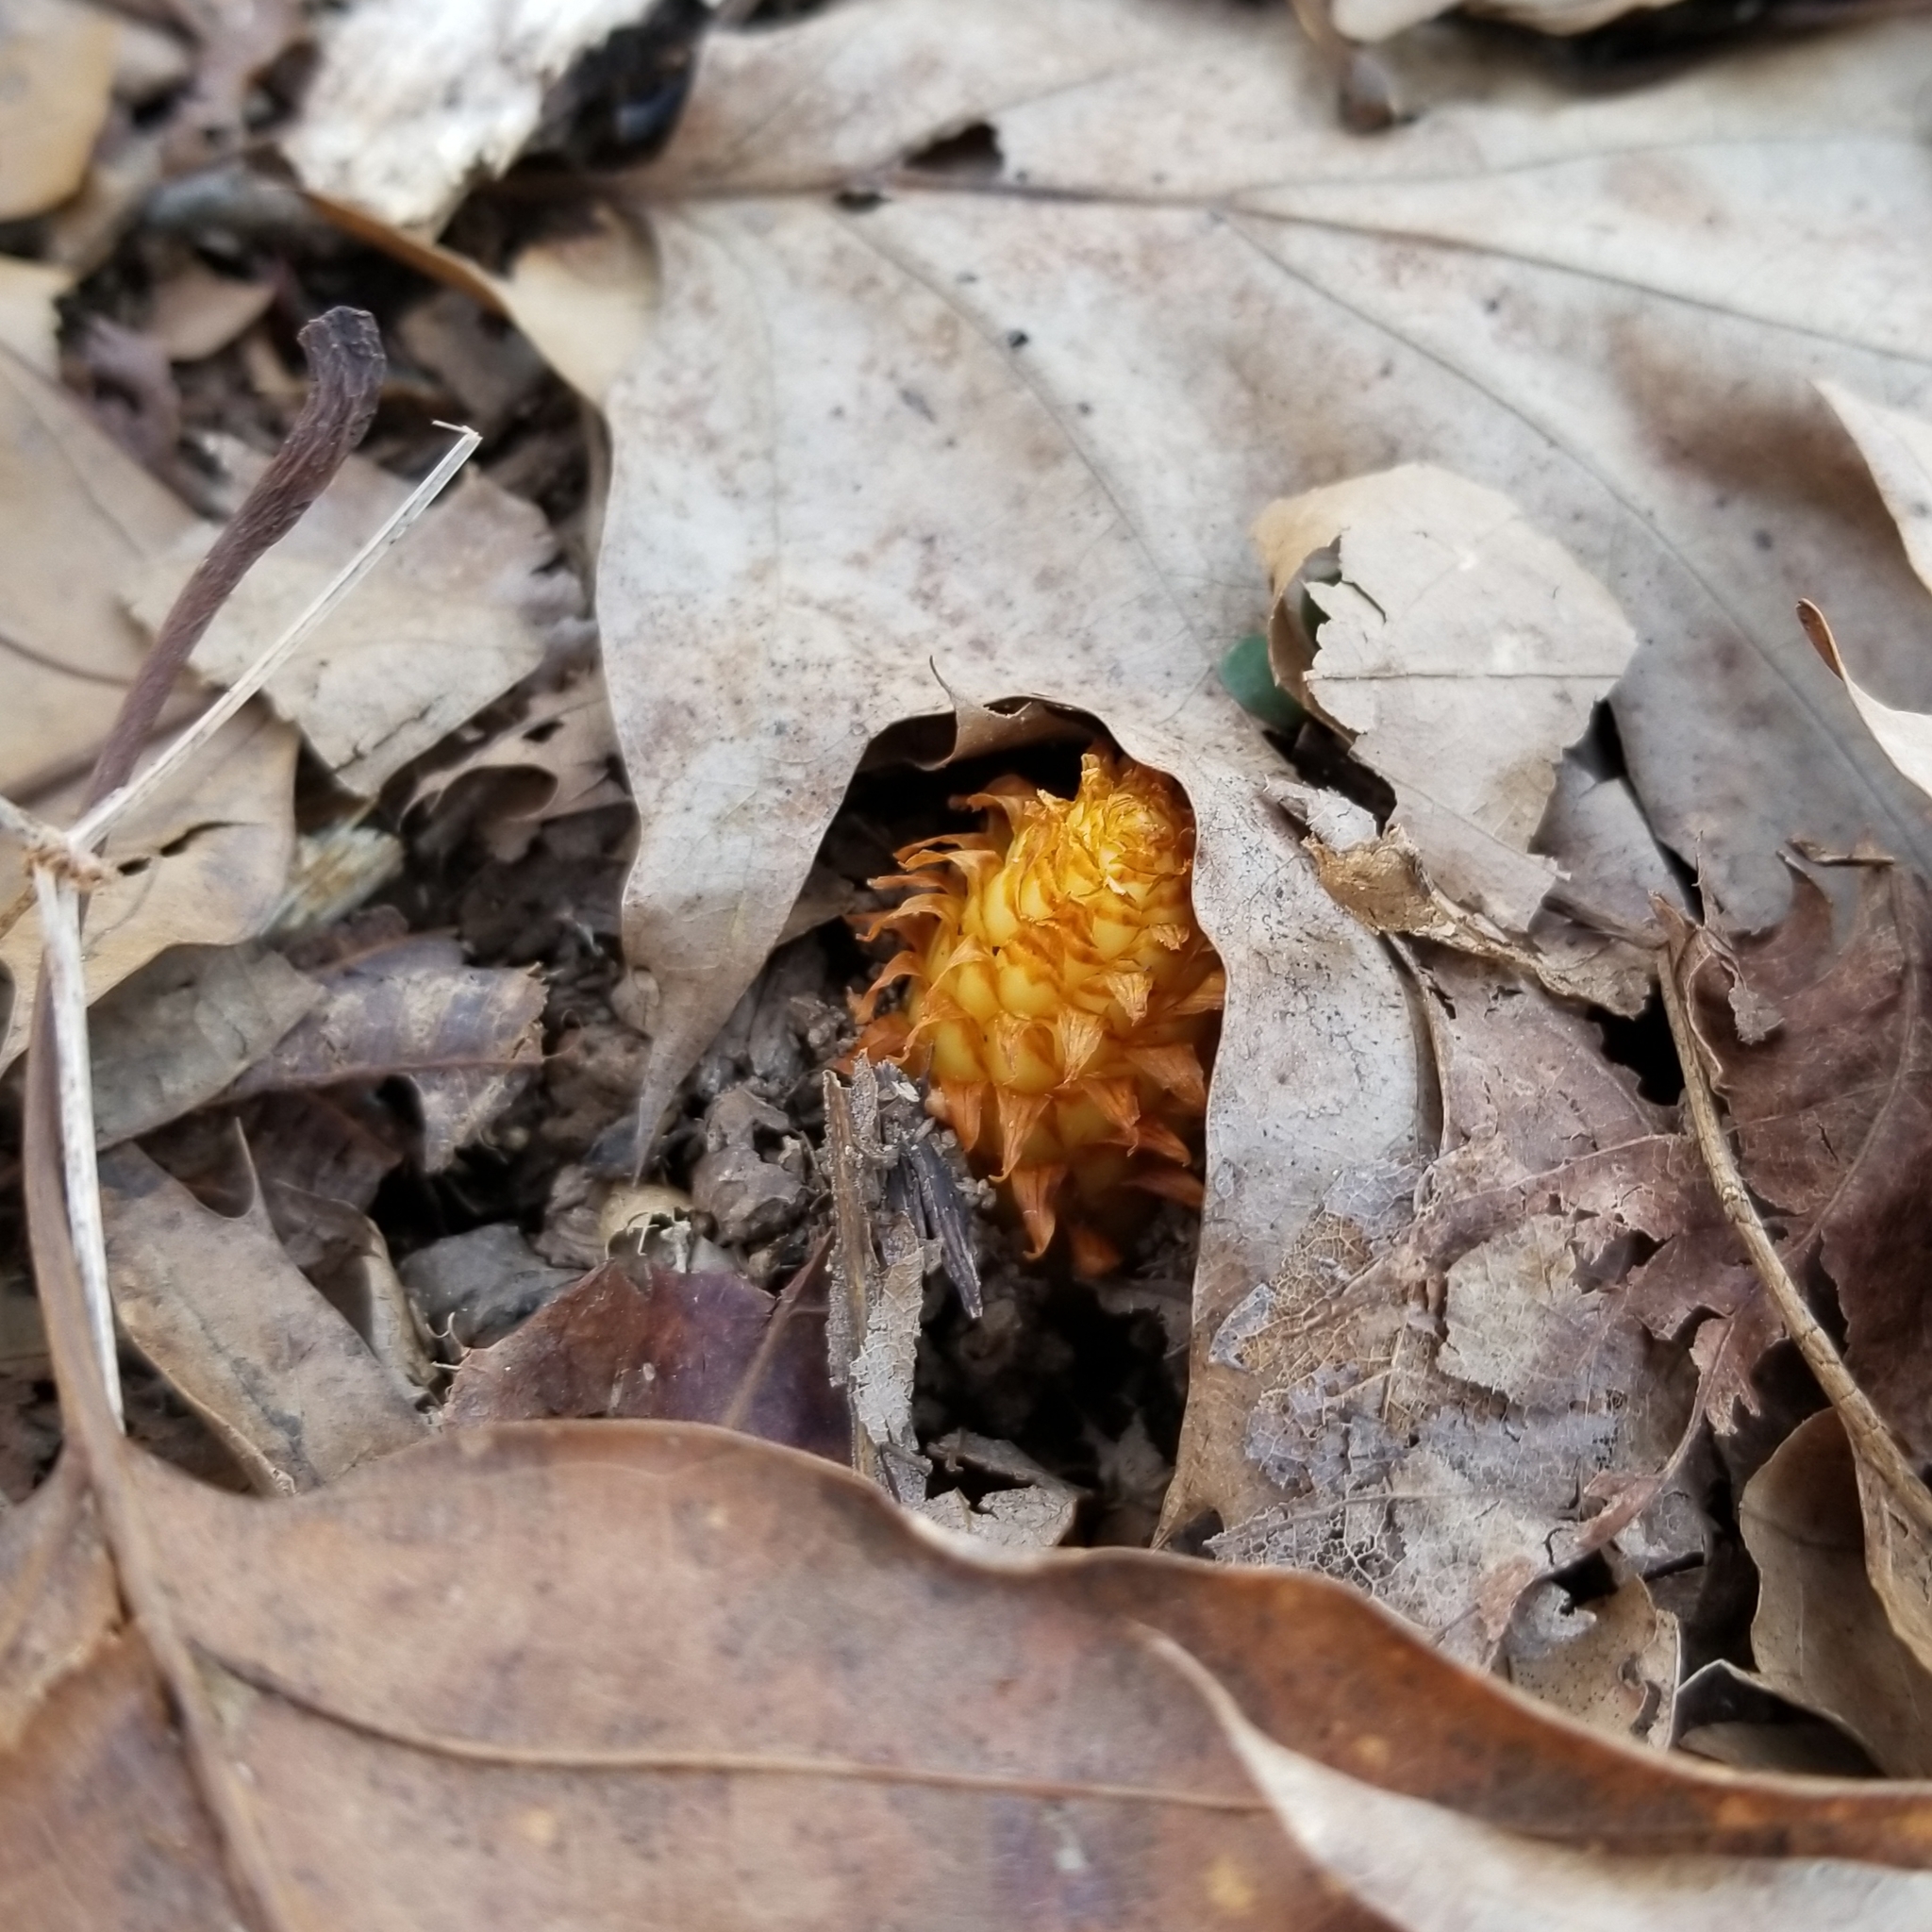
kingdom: Plantae
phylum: Tracheophyta
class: Magnoliopsida
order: Lamiales
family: Orobanchaceae
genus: Conopholis
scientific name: Conopholis americana
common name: American cancer-root
